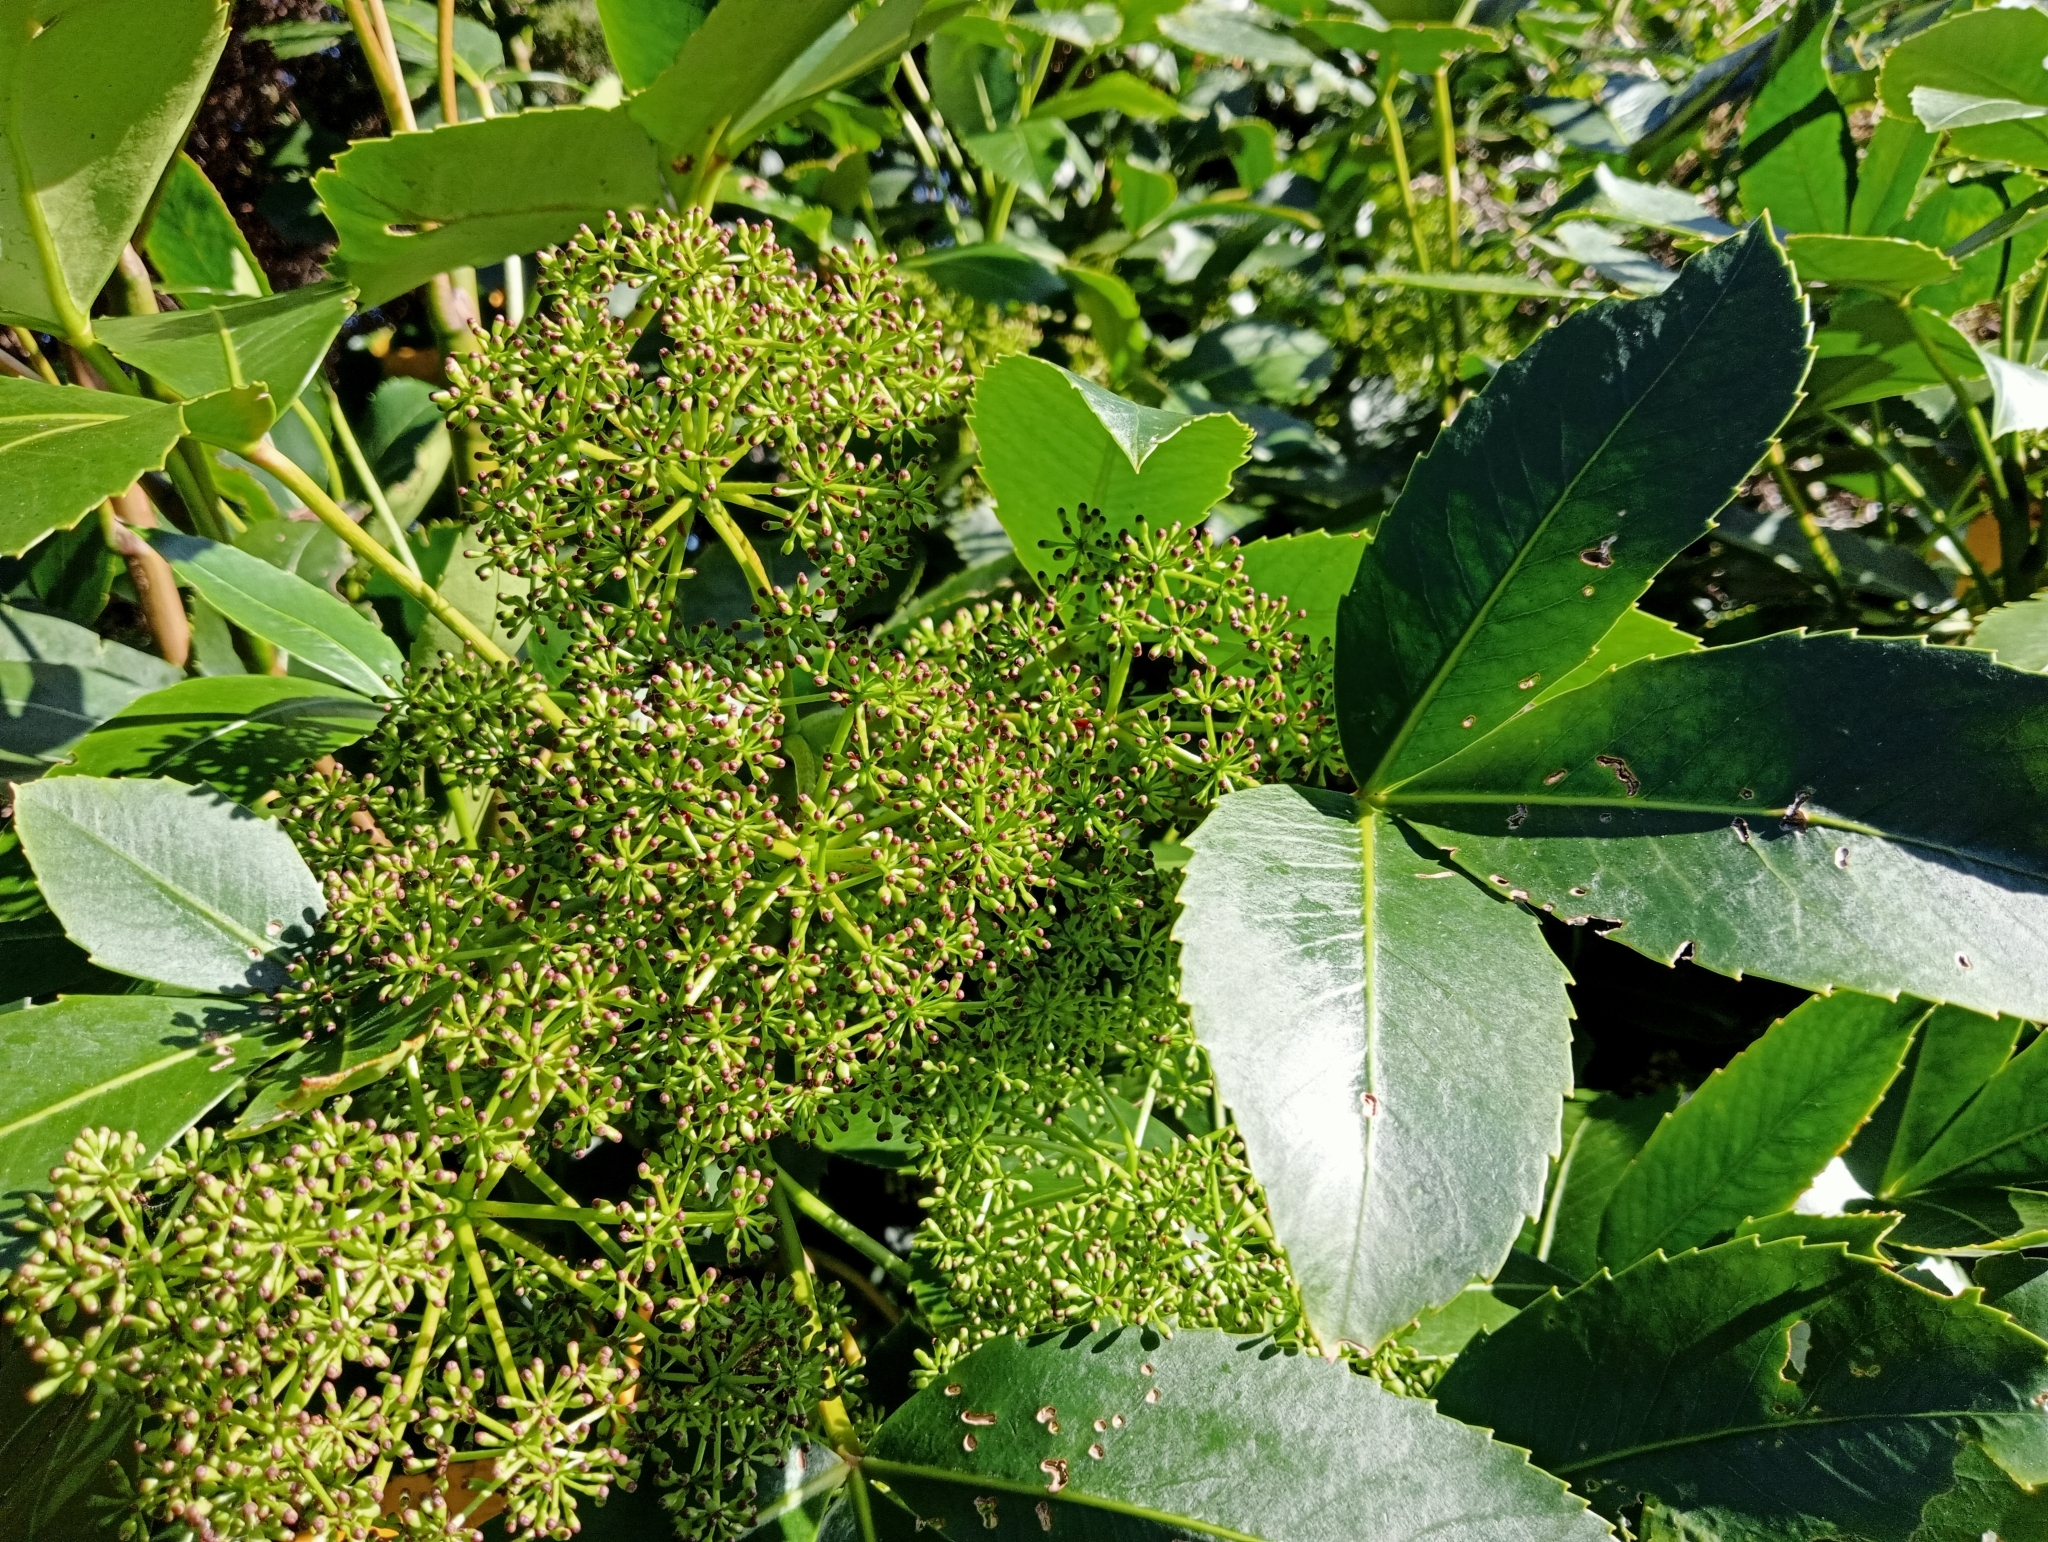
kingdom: Plantae
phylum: Tracheophyta
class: Magnoliopsida
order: Apiales
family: Araliaceae
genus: Neopanax
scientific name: Neopanax colensoi
